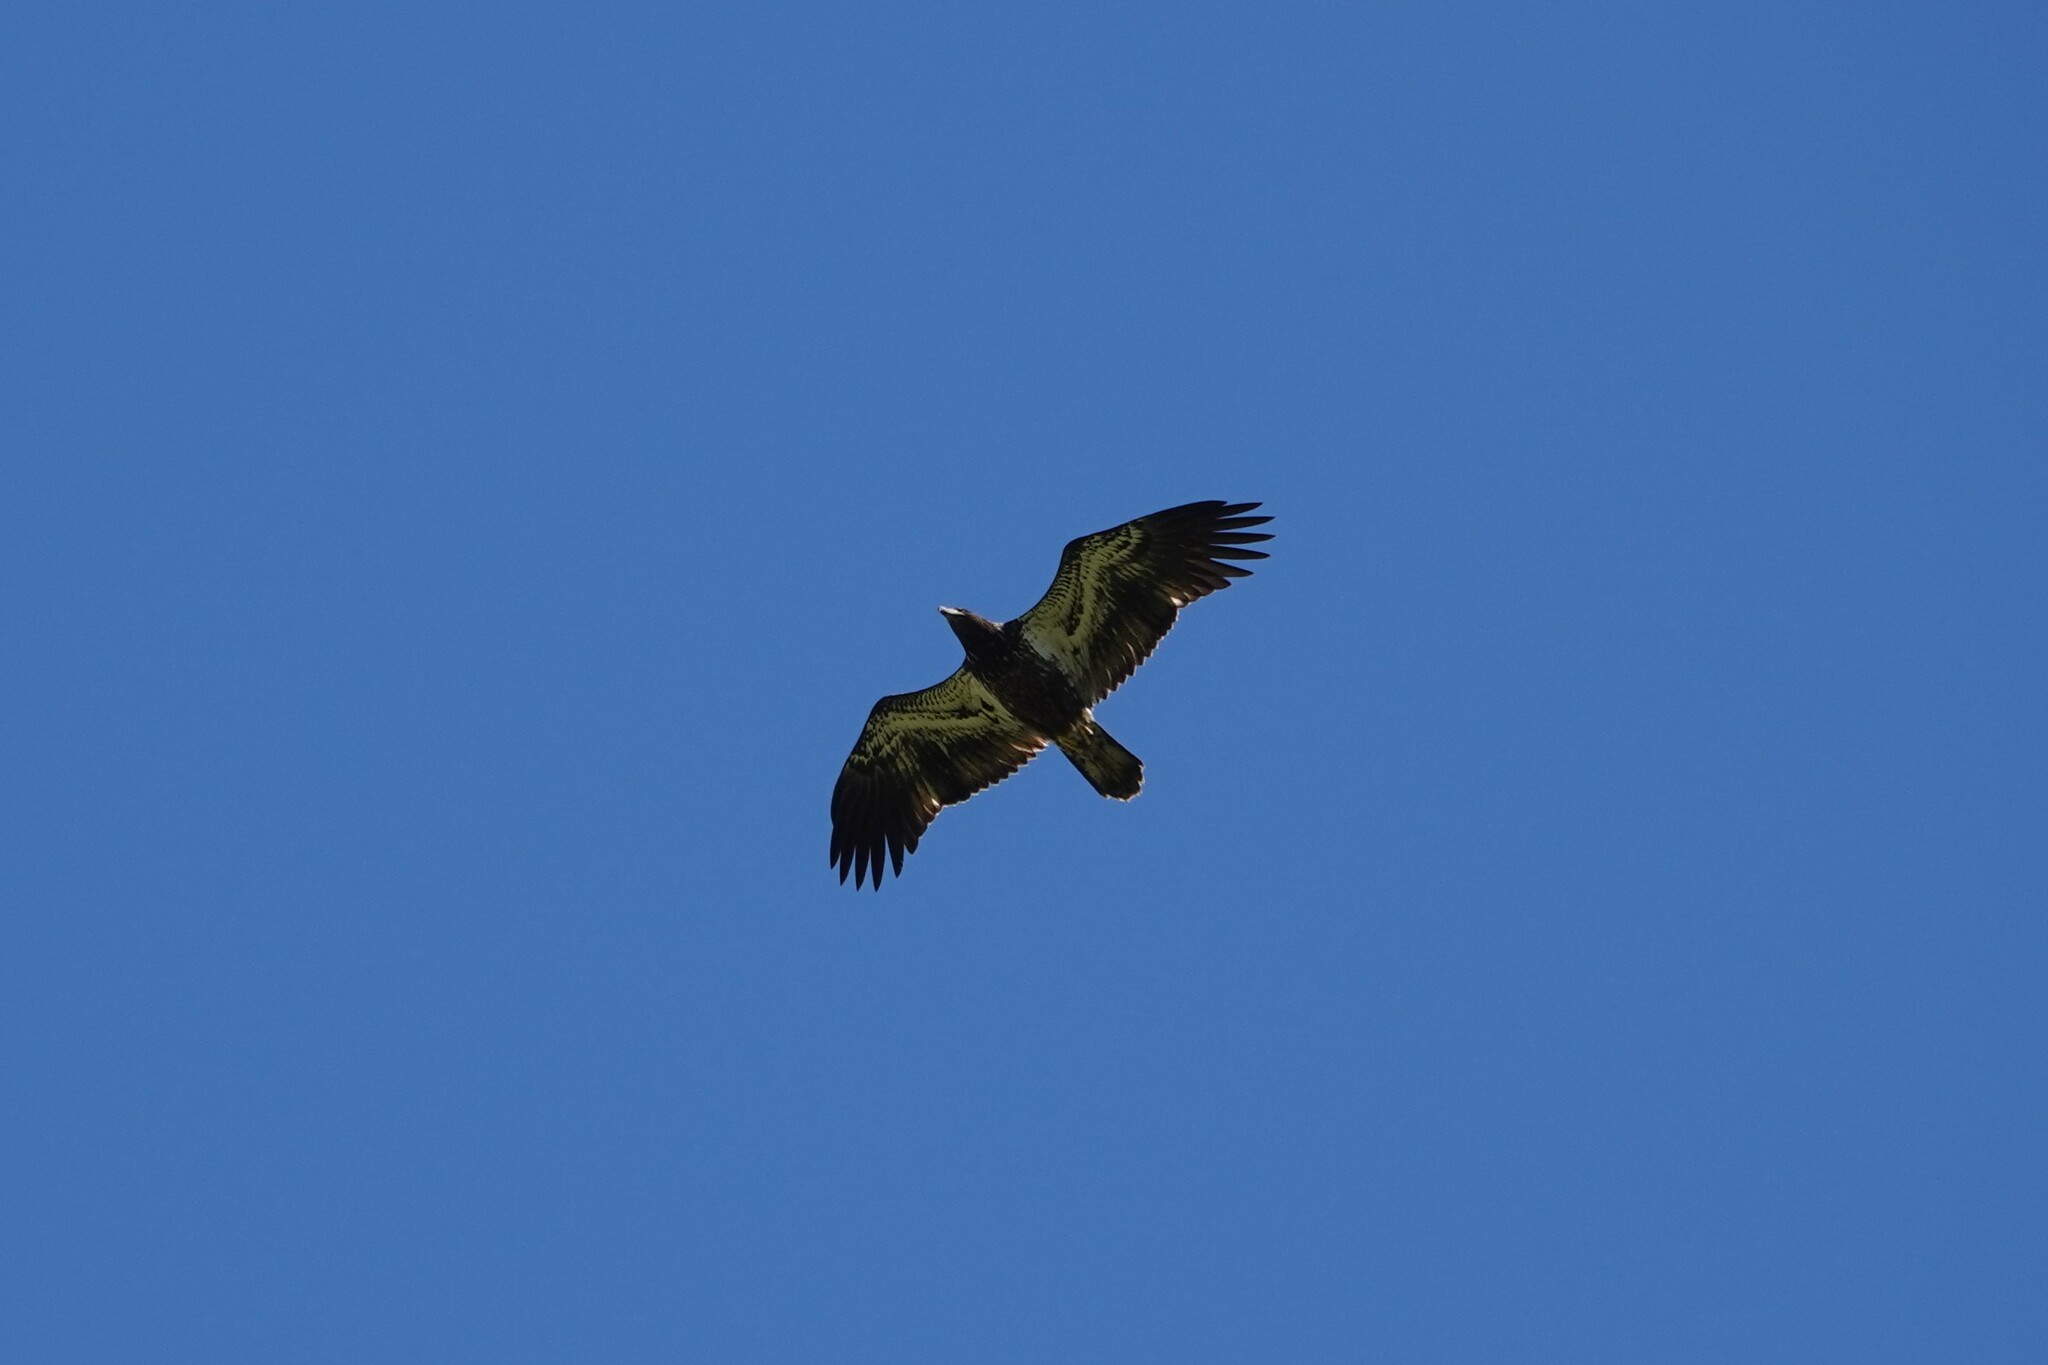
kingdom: Animalia
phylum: Chordata
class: Aves
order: Accipitriformes
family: Accipitridae
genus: Haliaeetus
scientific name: Haliaeetus leucocephalus
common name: Bald eagle
